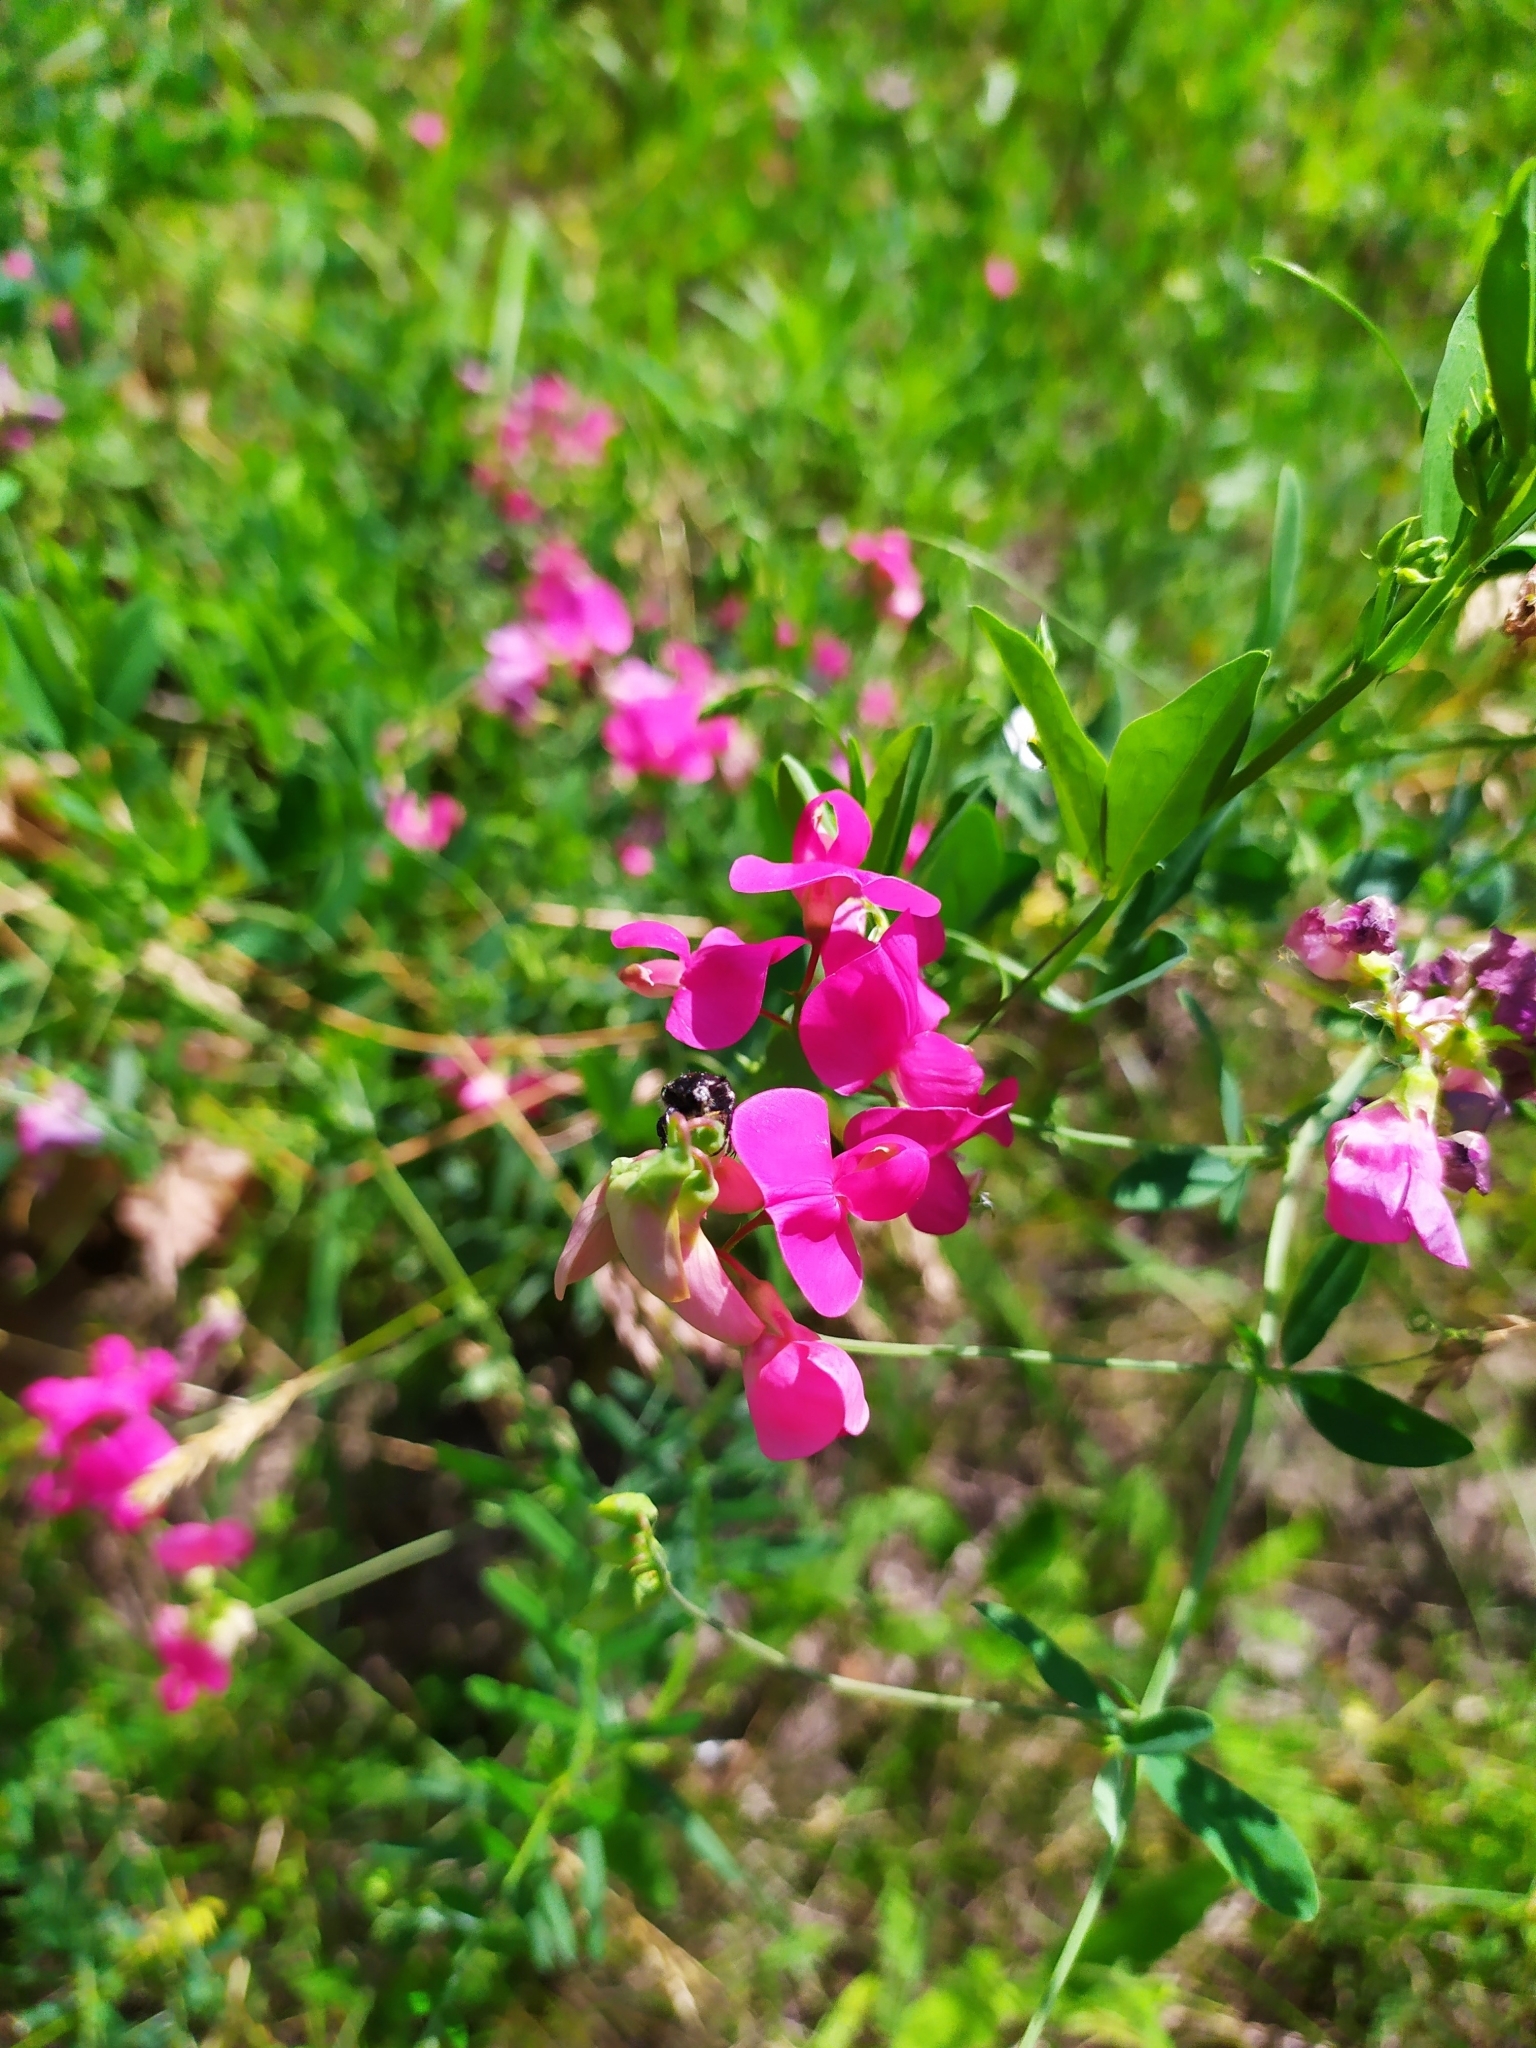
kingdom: Plantae
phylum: Tracheophyta
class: Magnoliopsida
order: Fabales
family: Fabaceae
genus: Lathyrus
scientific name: Lathyrus tuberosus
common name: Tuberous pea
